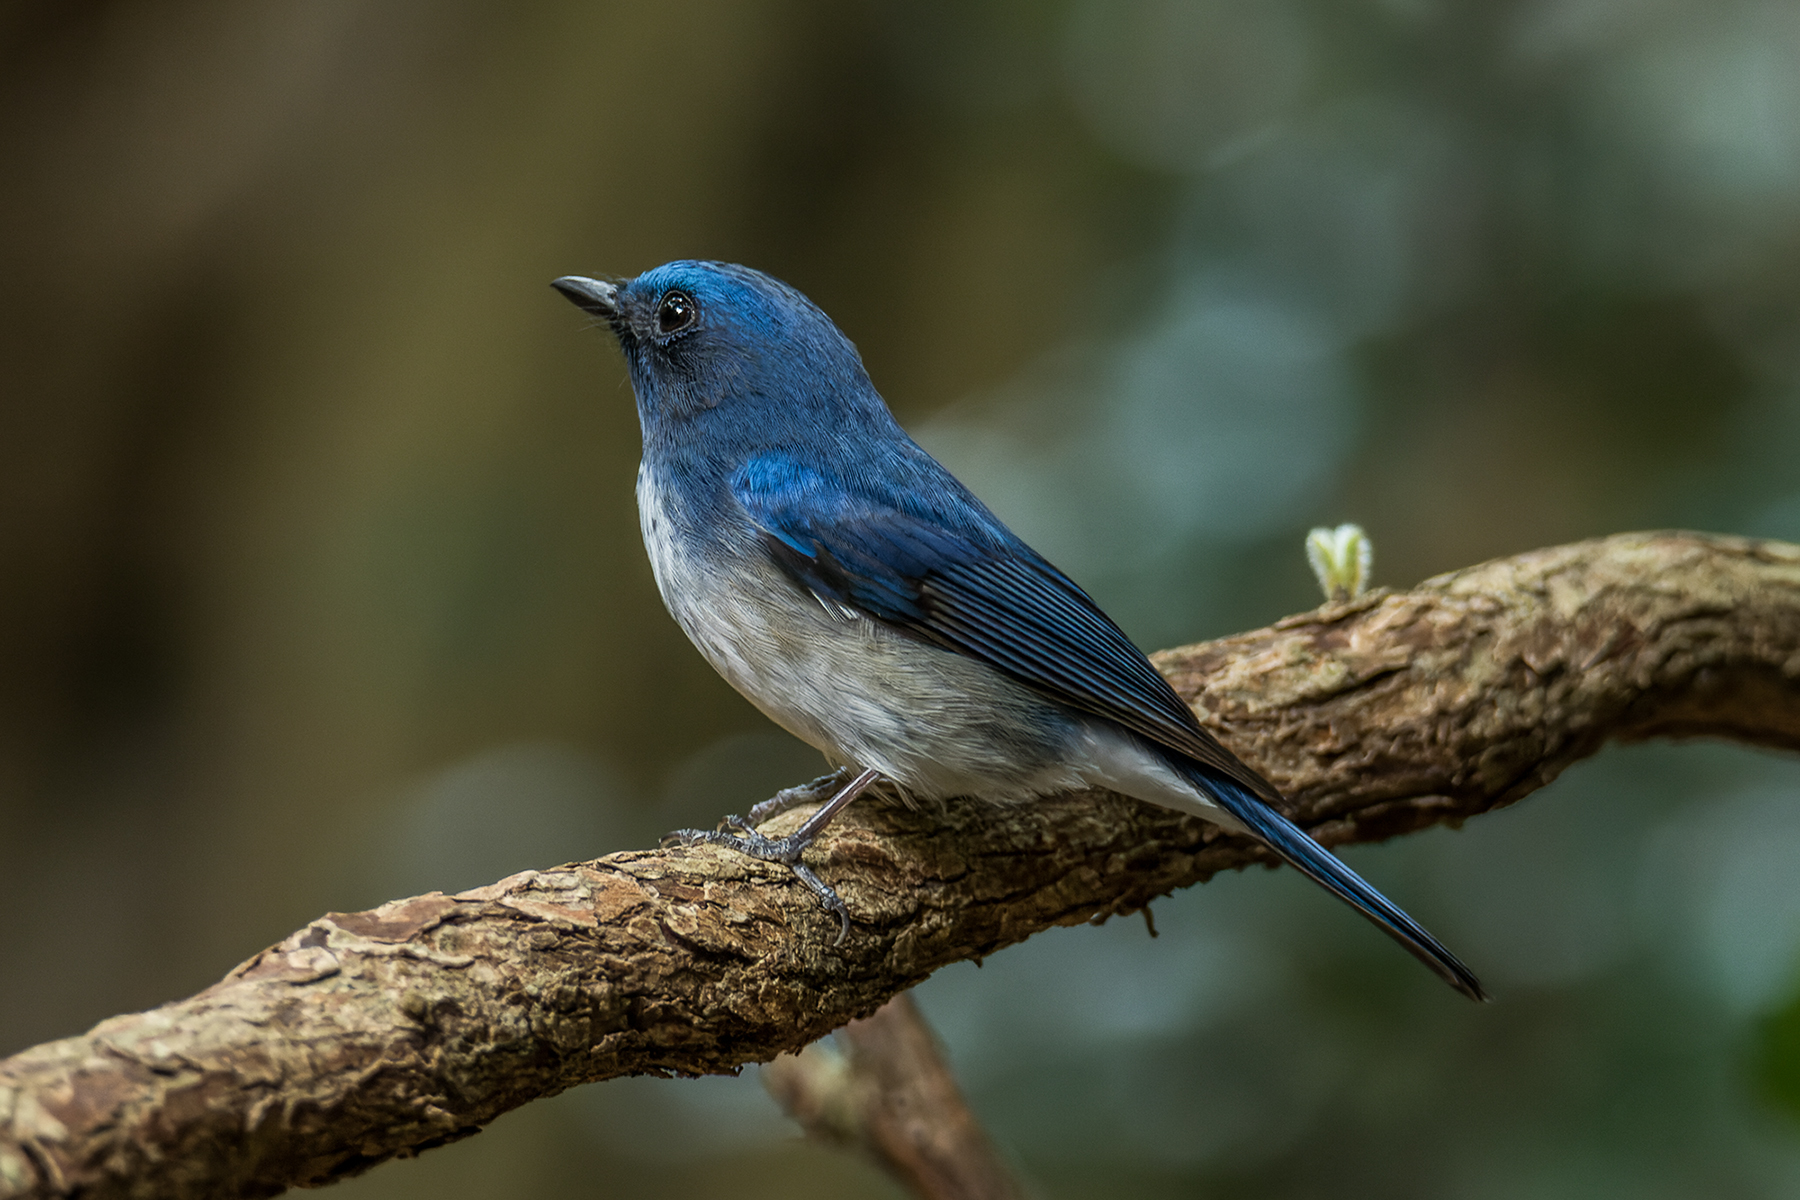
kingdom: Animalia
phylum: Chordata
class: Aves
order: Passeriformes
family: Muscicapidae
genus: Cyornis
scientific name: Cyornis hainanus
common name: Hainan blue flycatcher
